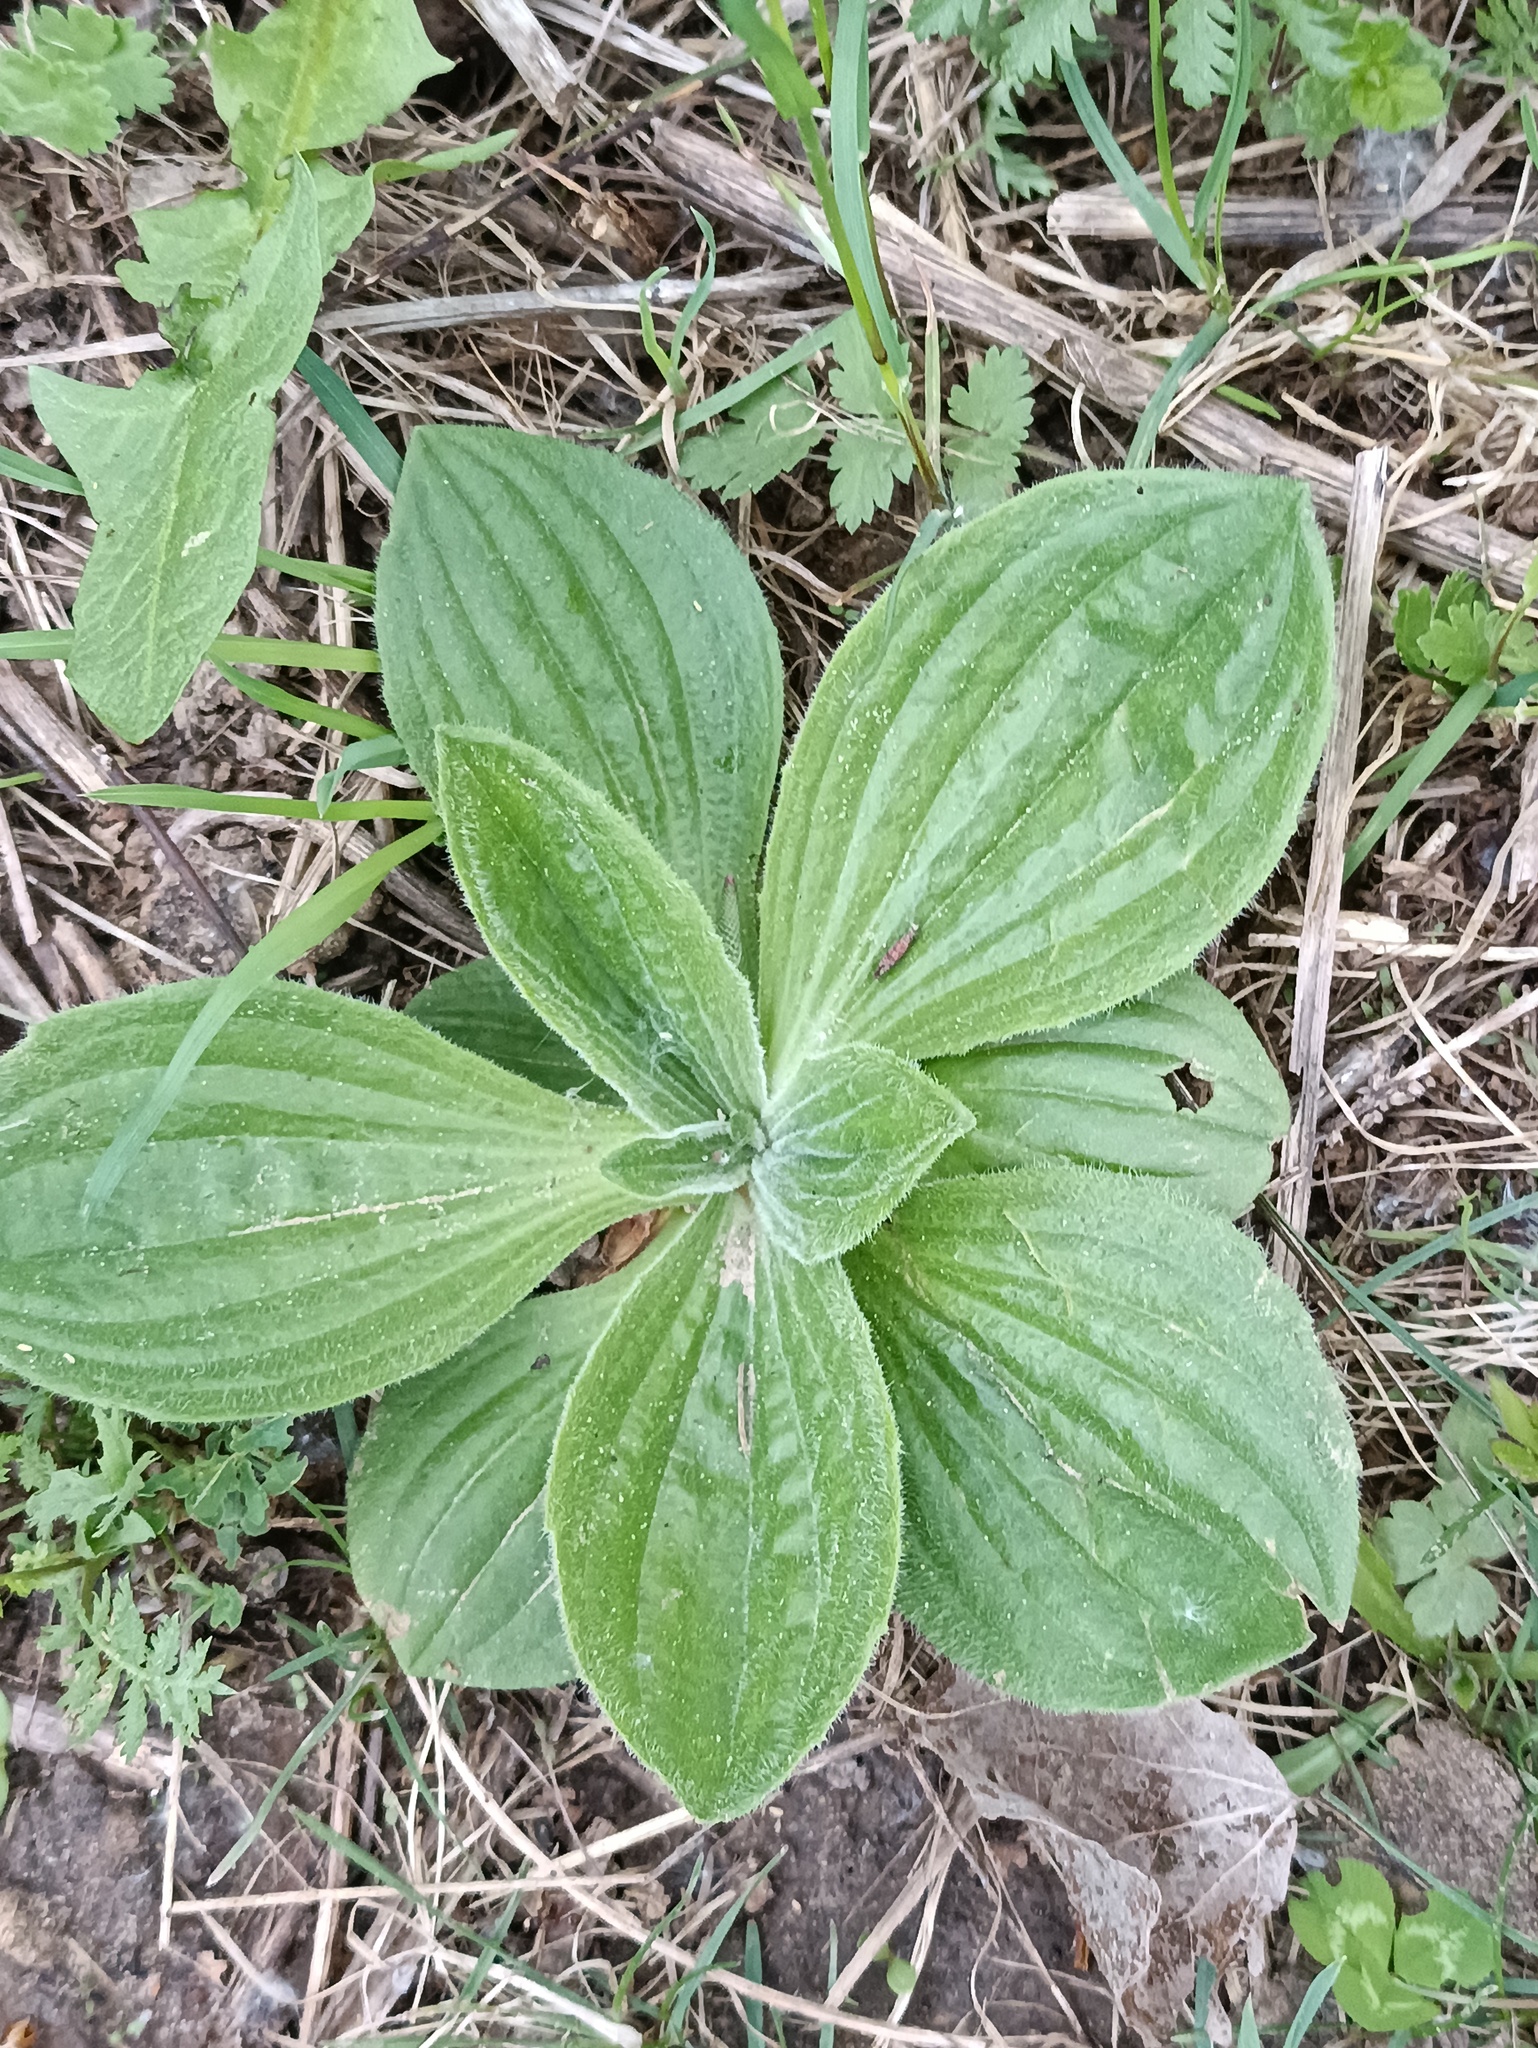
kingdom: Plantae
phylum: Tracheophyta
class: Magnoliopsida
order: Lamiales
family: Plantaginaceae
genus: Plantago
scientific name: Plantago media
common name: Hoary plantain
